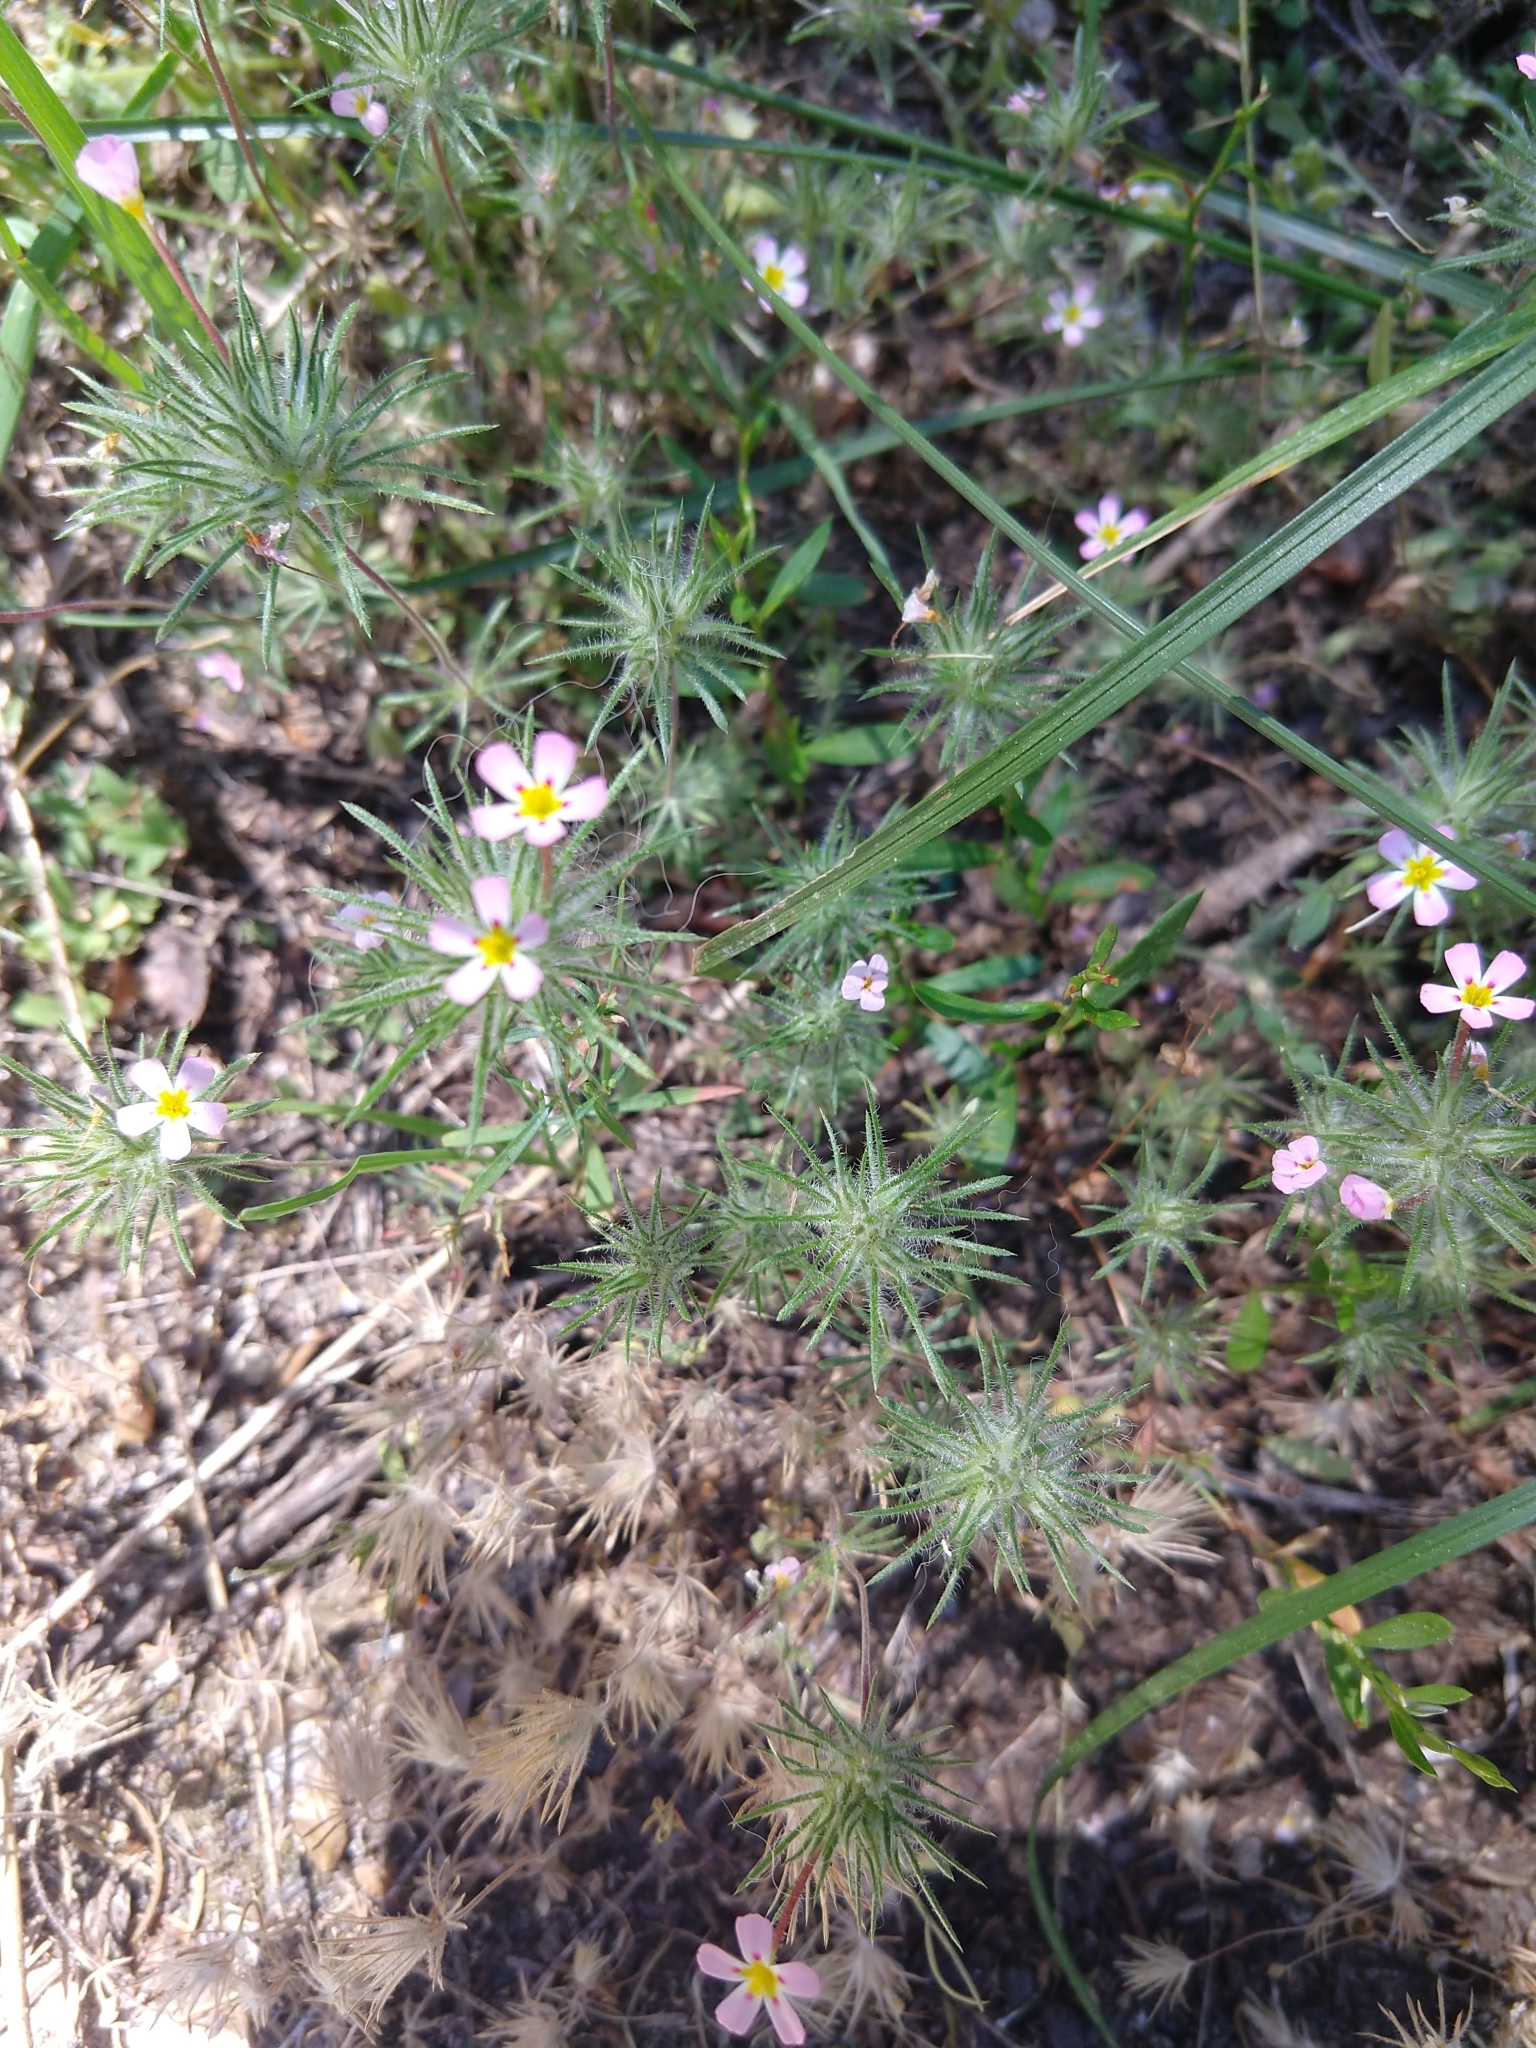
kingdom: Plantae
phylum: Tracheophyta
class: Magnoliopsida
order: Ericales
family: Polemoniaceae
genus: Leptosiphon
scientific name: Leptosiphon ciliatus
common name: Whiskerbrush
